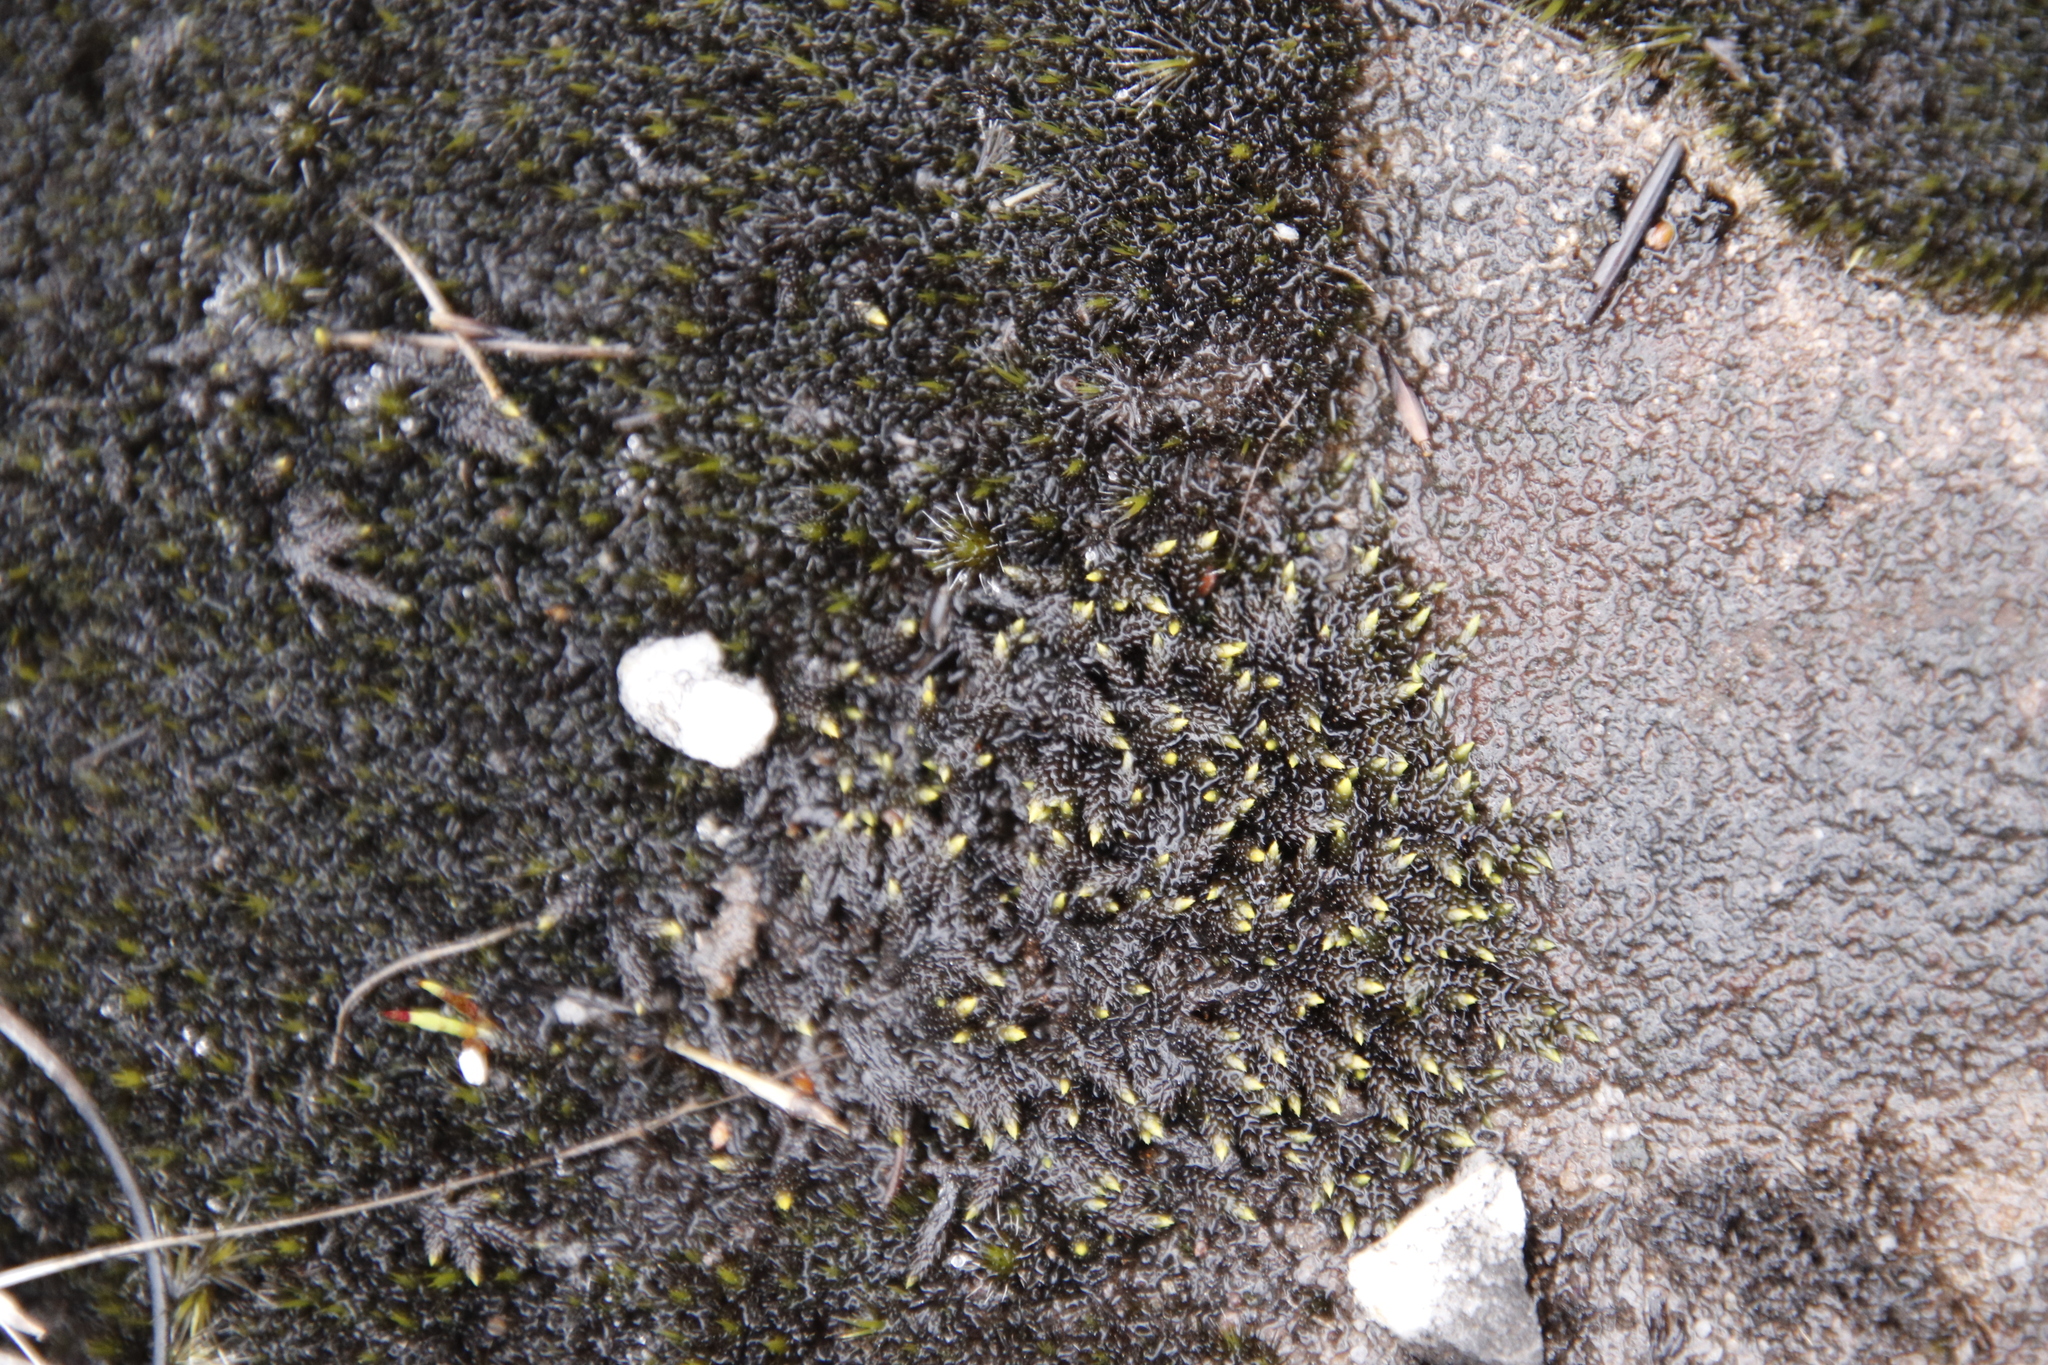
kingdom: Plantae
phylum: Bryophyta
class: Bryopsida
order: Hedwigiales
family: Hedwigiaceae
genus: Rhacocarpus
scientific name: Rhacocarpus purpurascens
